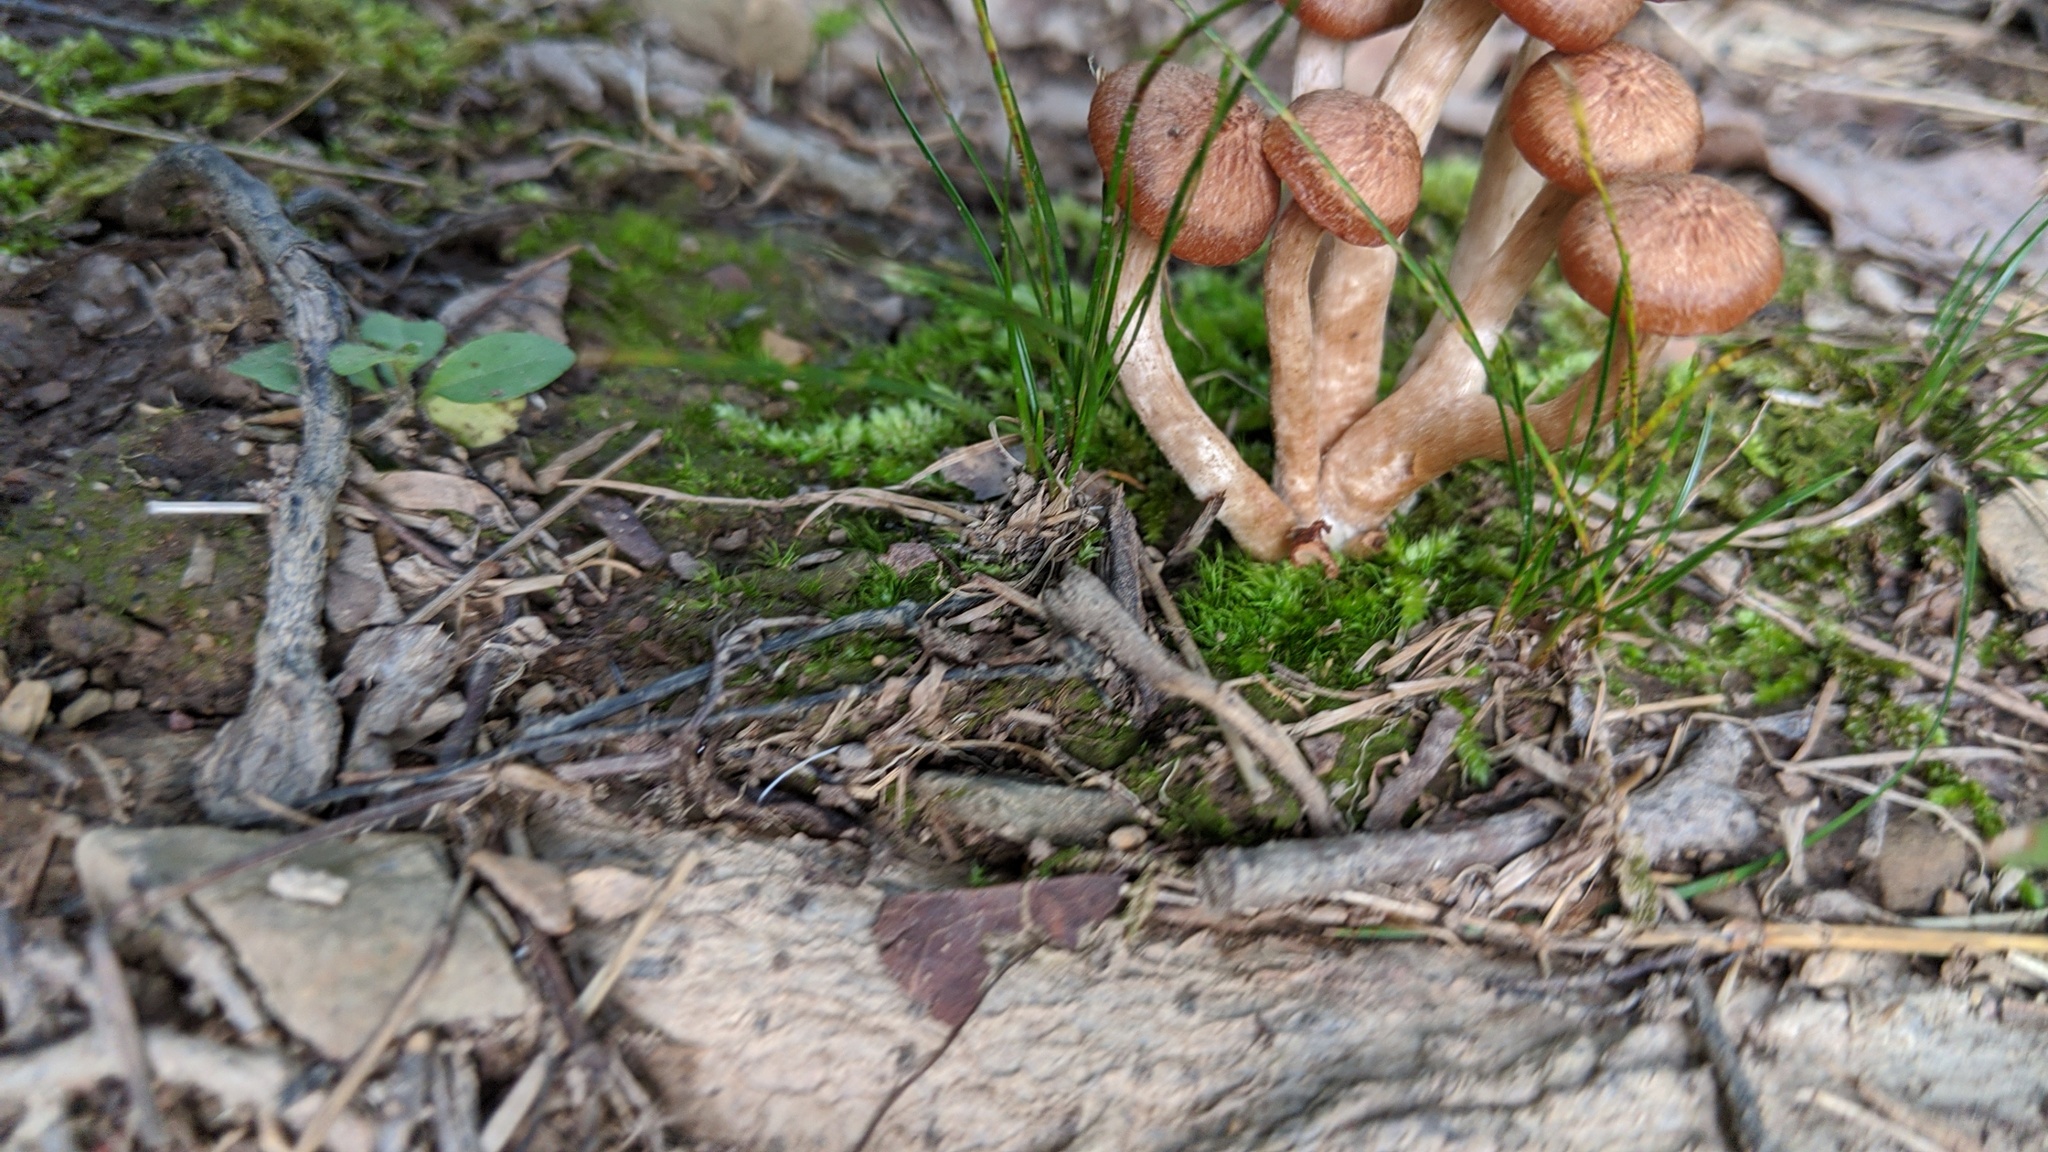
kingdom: Fungi
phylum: Basidiomycota
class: Agaricomycetes
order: Agaricales
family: Physalacriaceae
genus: Desarmillaria
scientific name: Desarmillaria caespitosa
